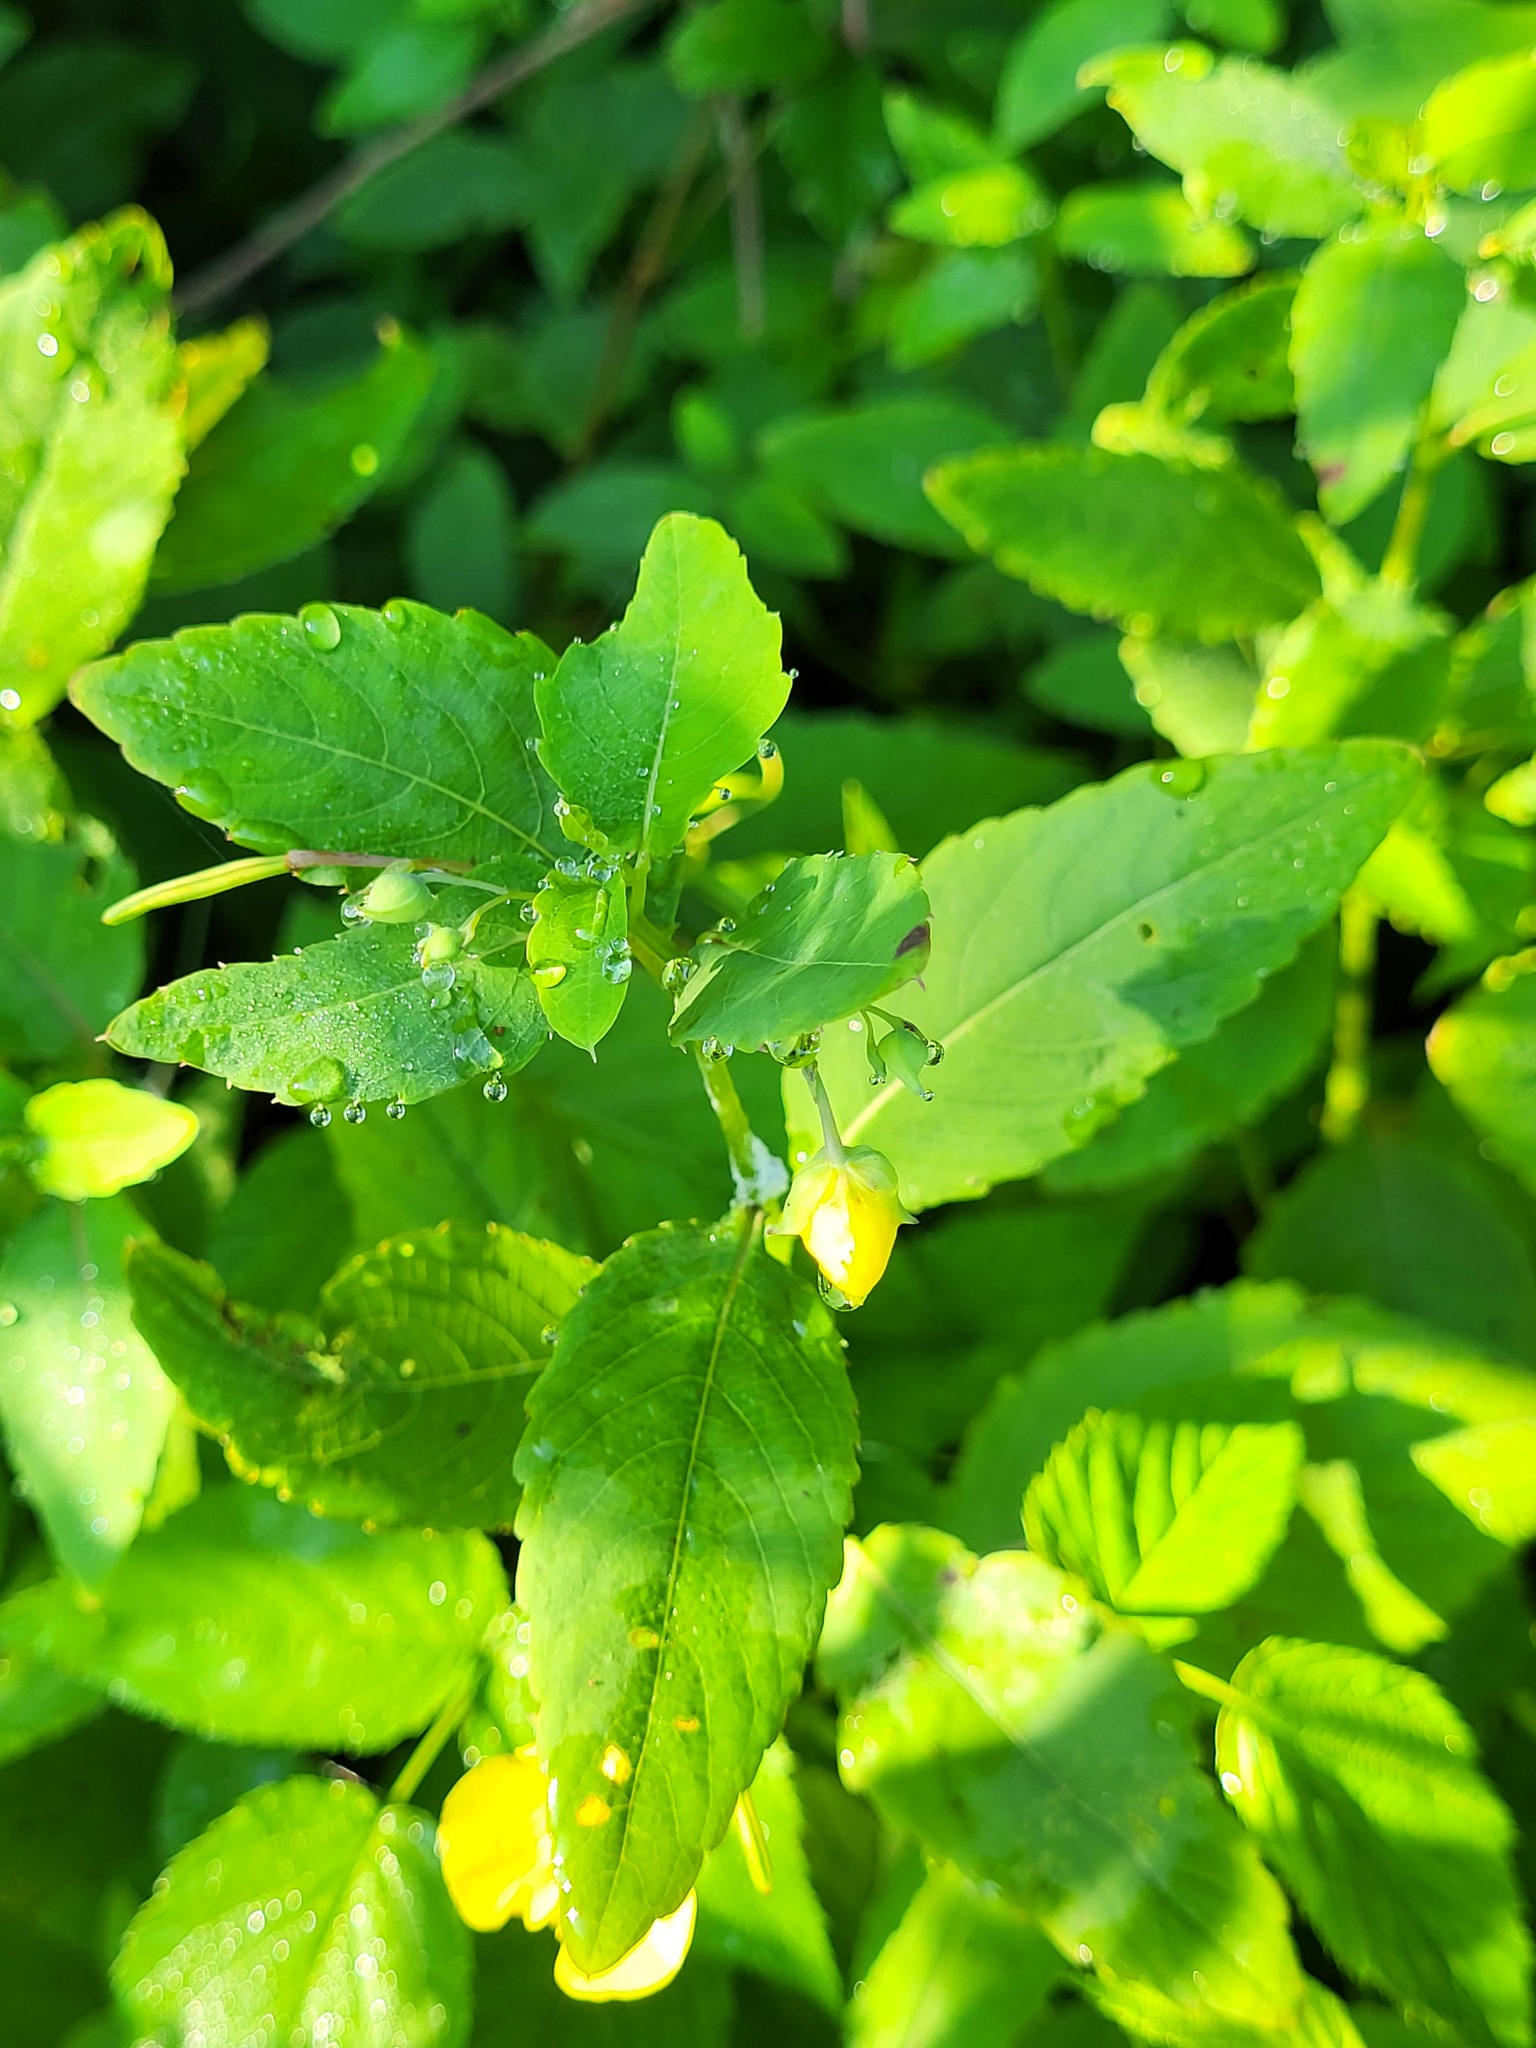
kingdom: Plantae
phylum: Tracheophyta
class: Magnoliopsida
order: Ericales
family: Balsaminaceae
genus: Impatiens
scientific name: Impatiens pallida
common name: Pale snapweed
